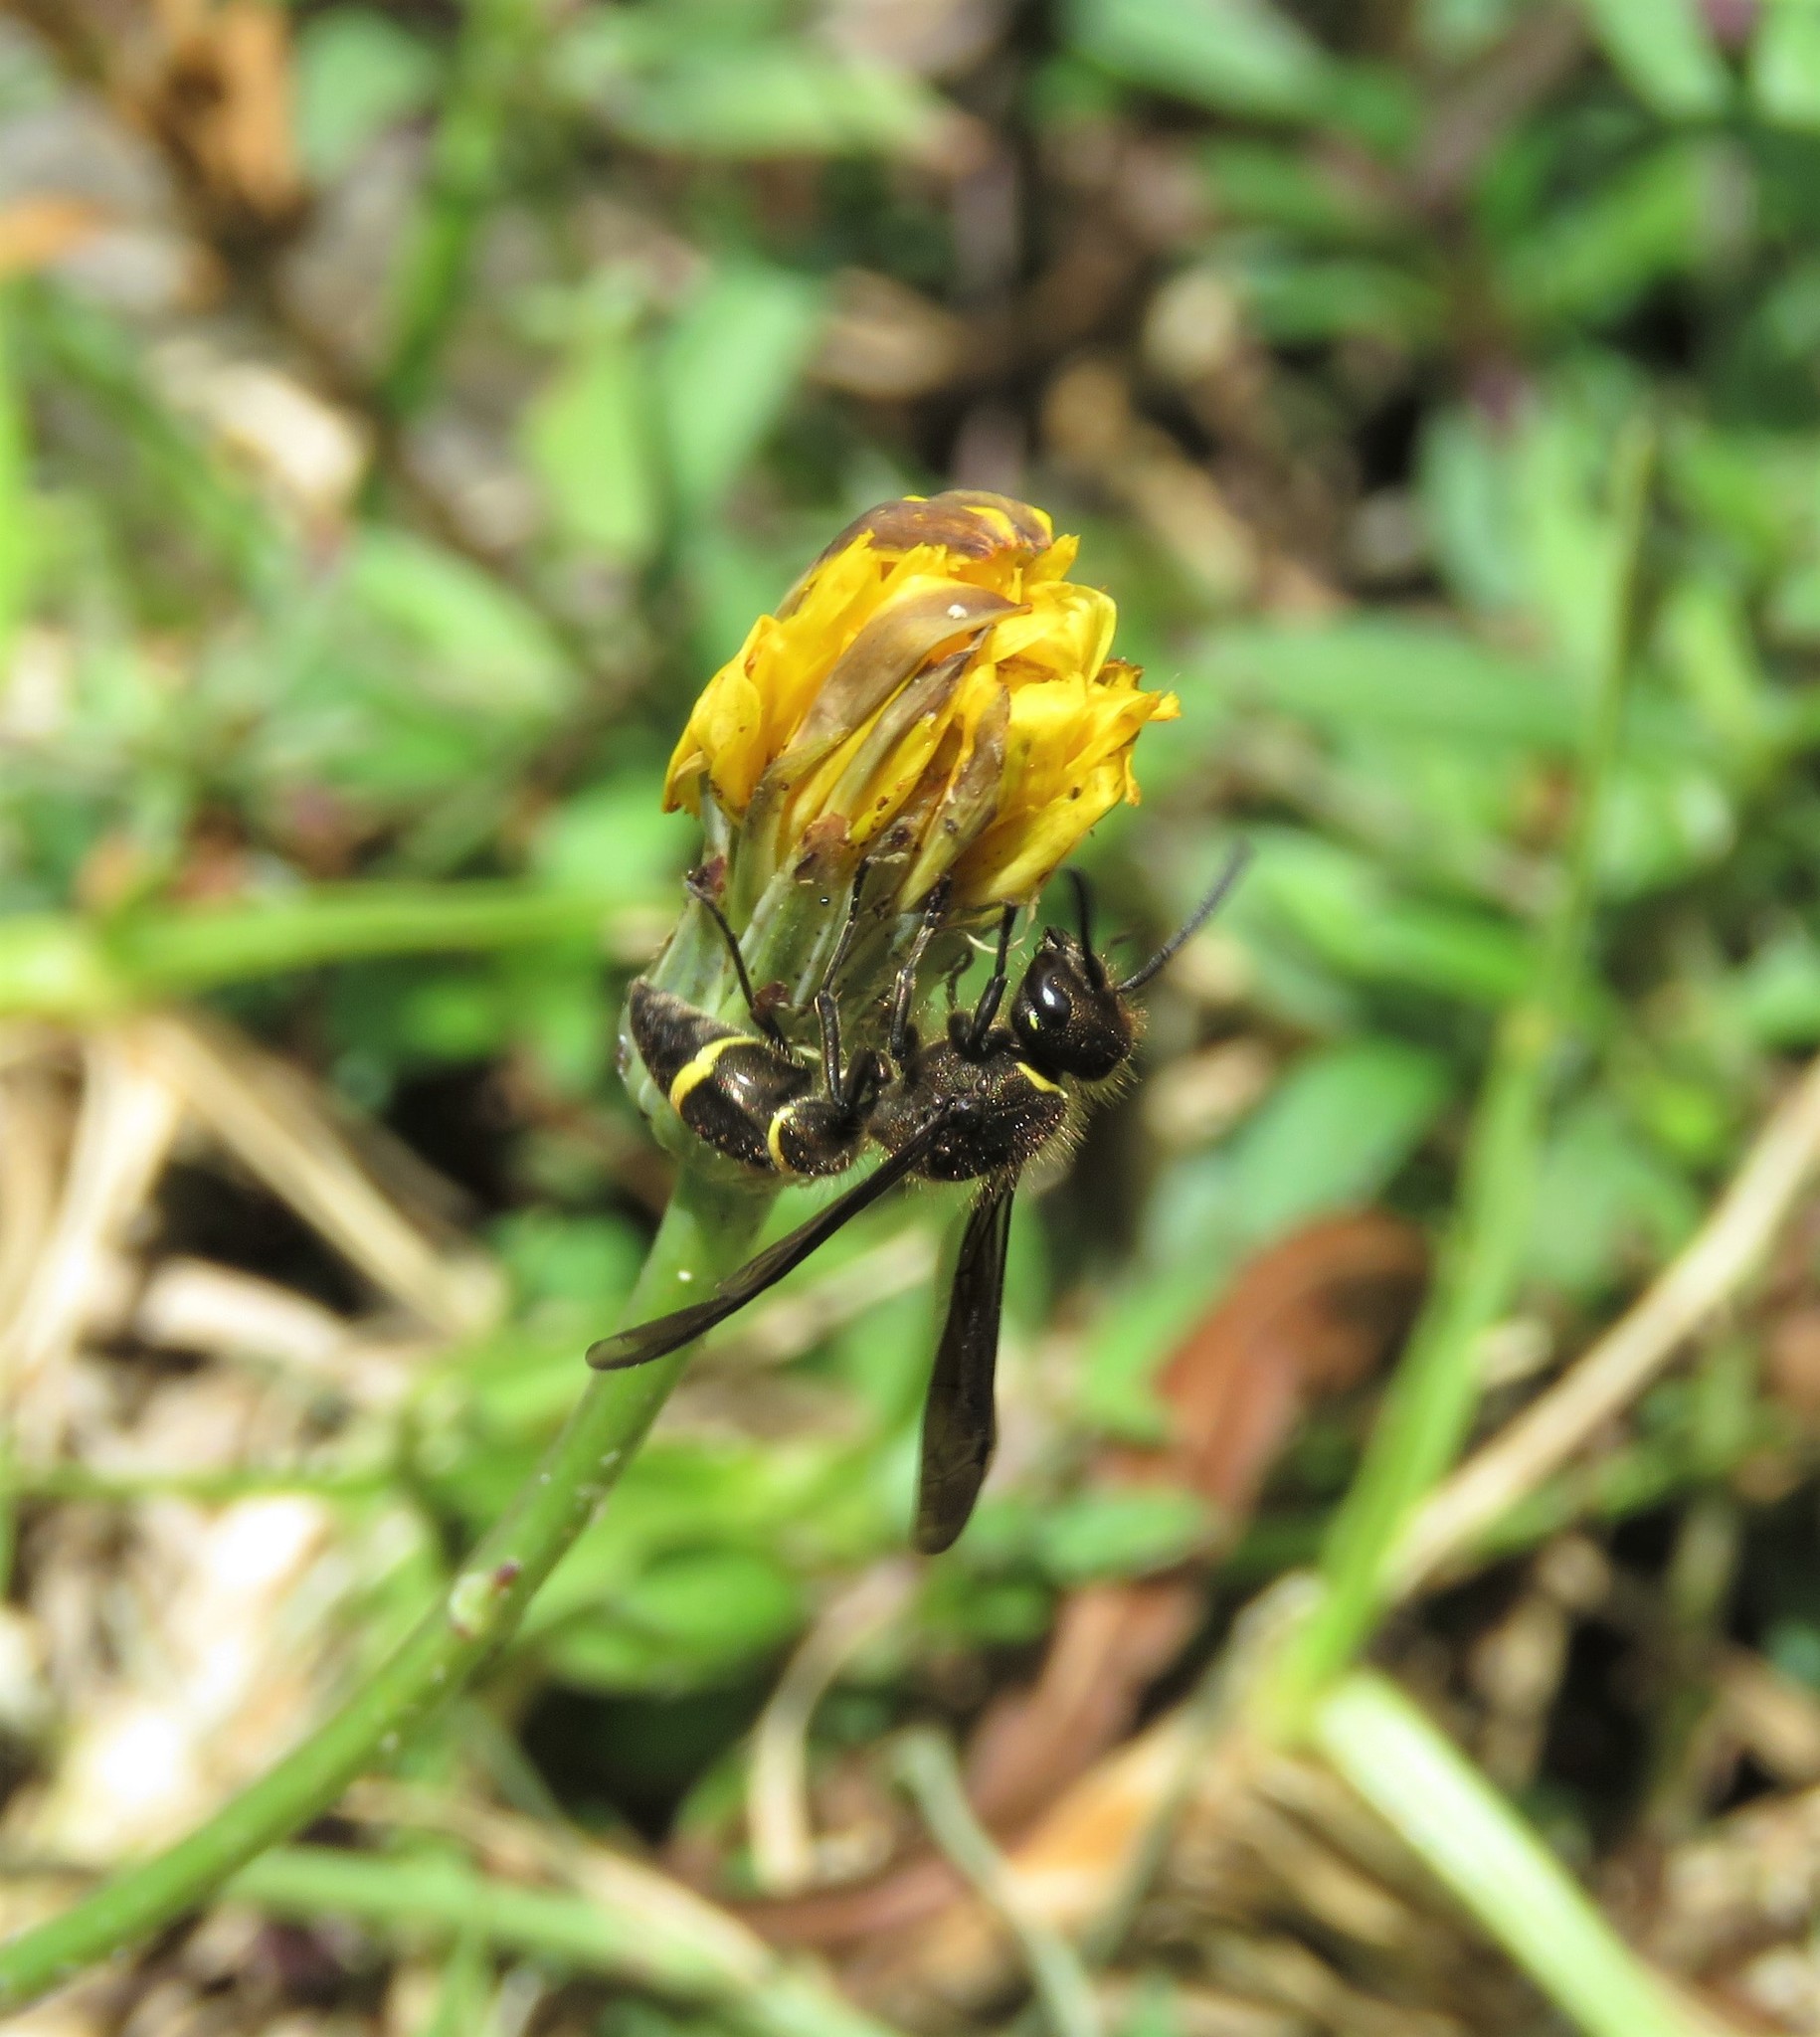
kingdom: Plantae
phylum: Tracheophyta
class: Magnoliopsida
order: Asterales
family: Asteraceae
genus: Hypochaeris
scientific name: Hypochaeris radicata
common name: Flatweed
